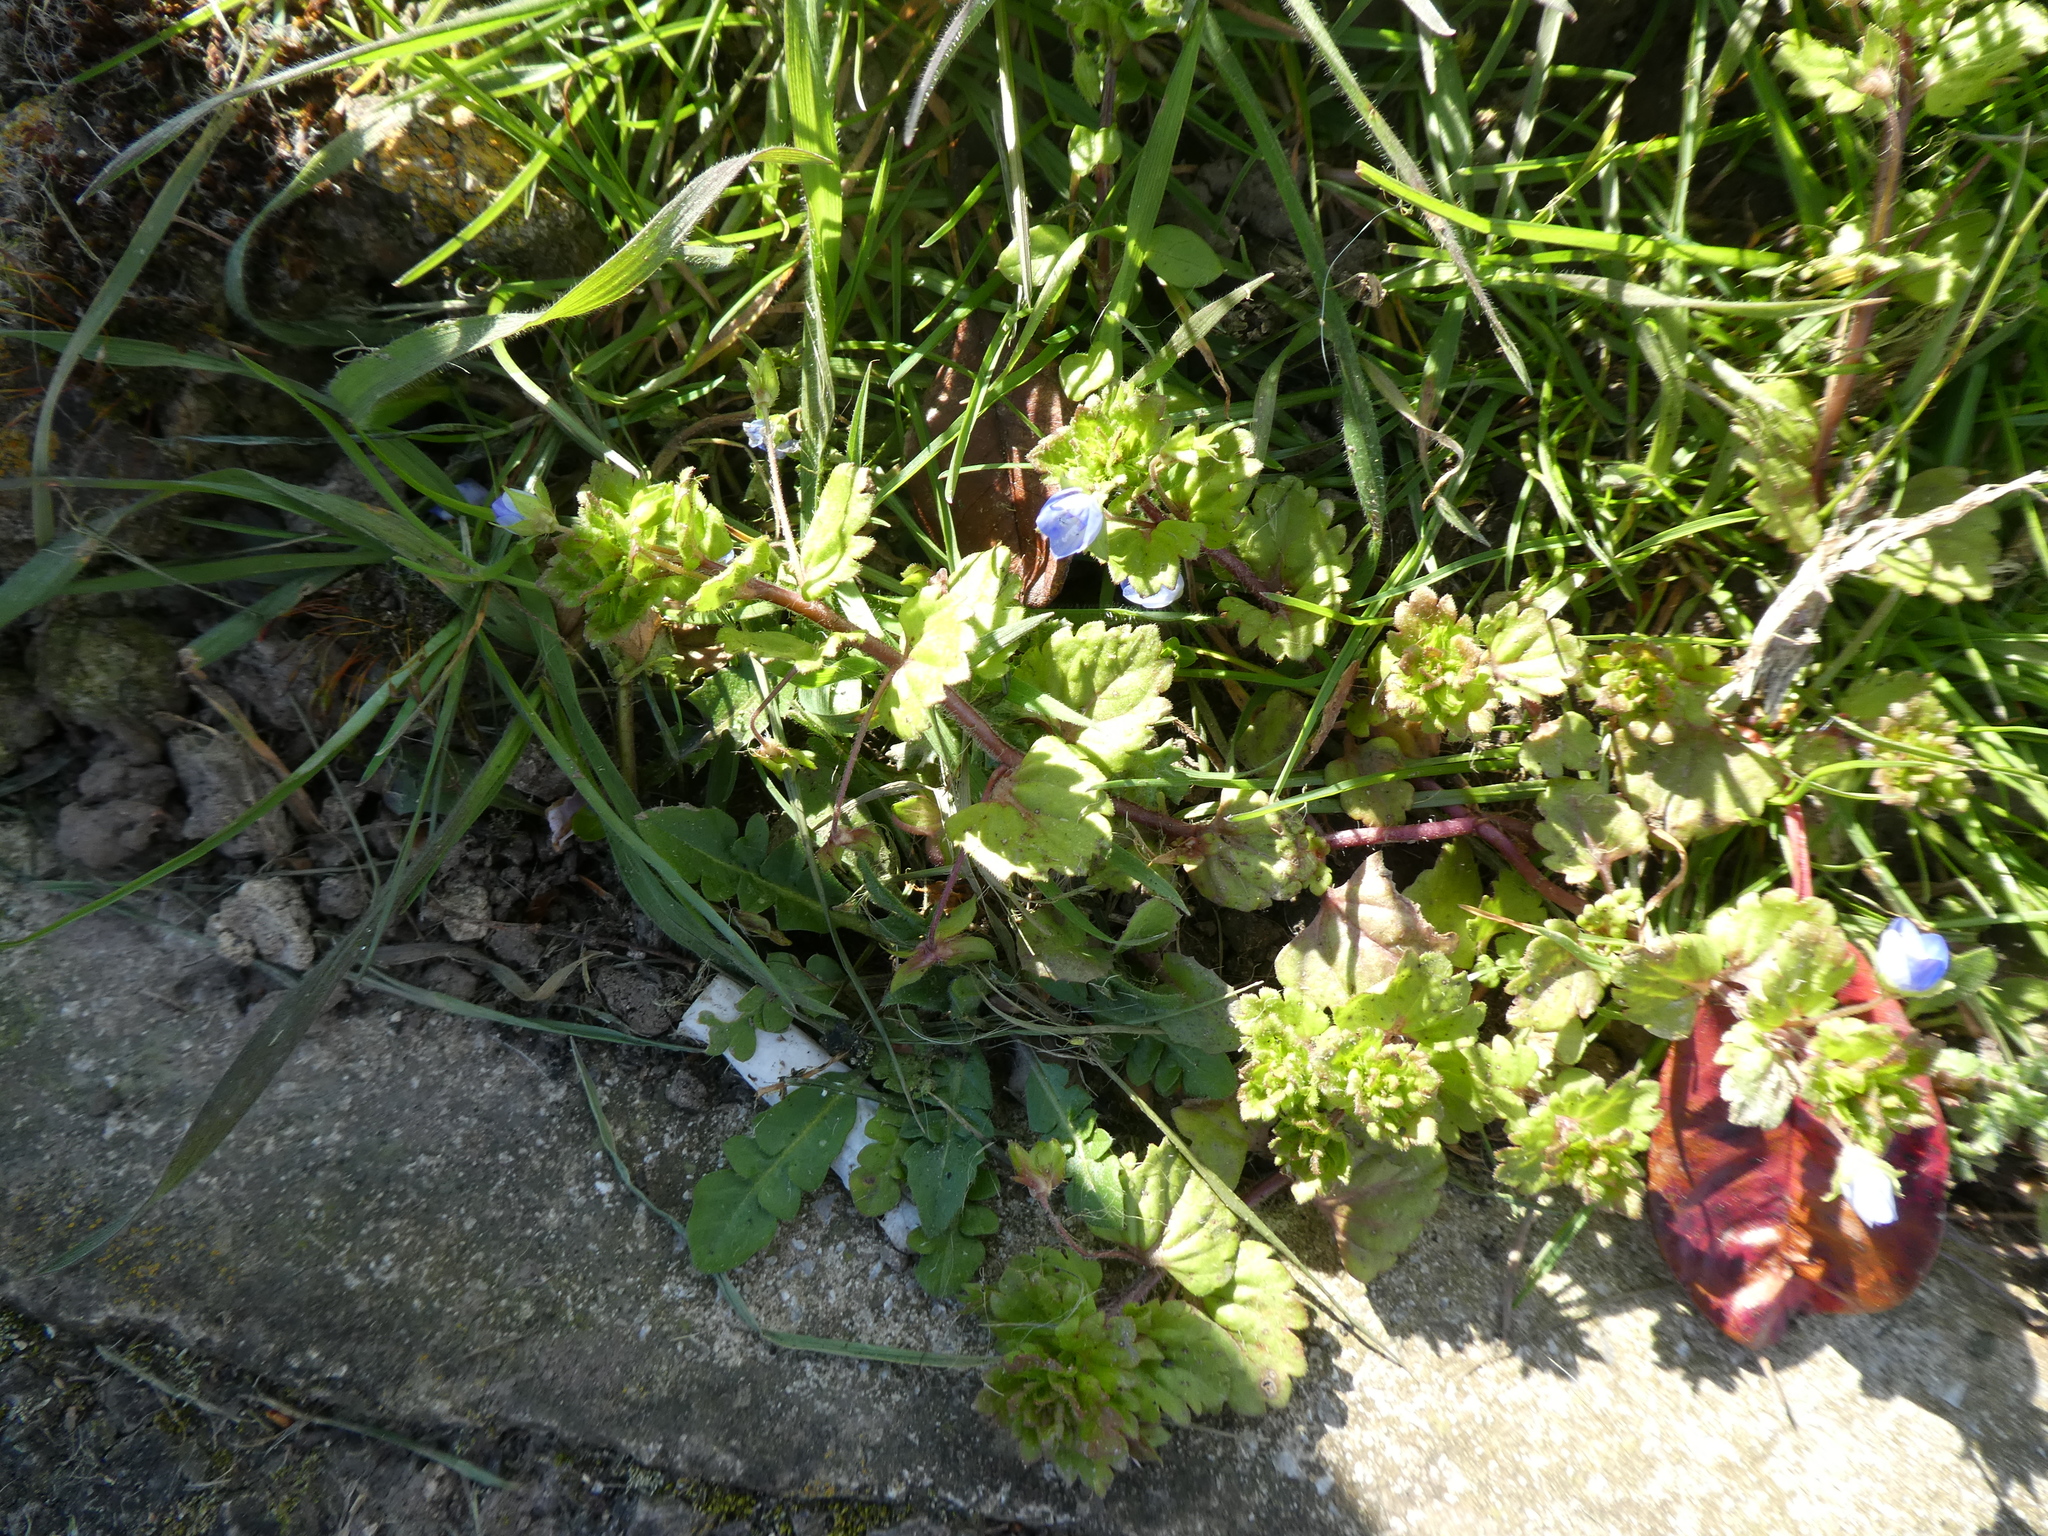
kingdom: Plantae
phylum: Tracheophyta
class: Magnoliopsida
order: Lamiales
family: Plantaginaceae
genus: Veronica
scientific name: Veronica persica
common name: Common field-speedwell
